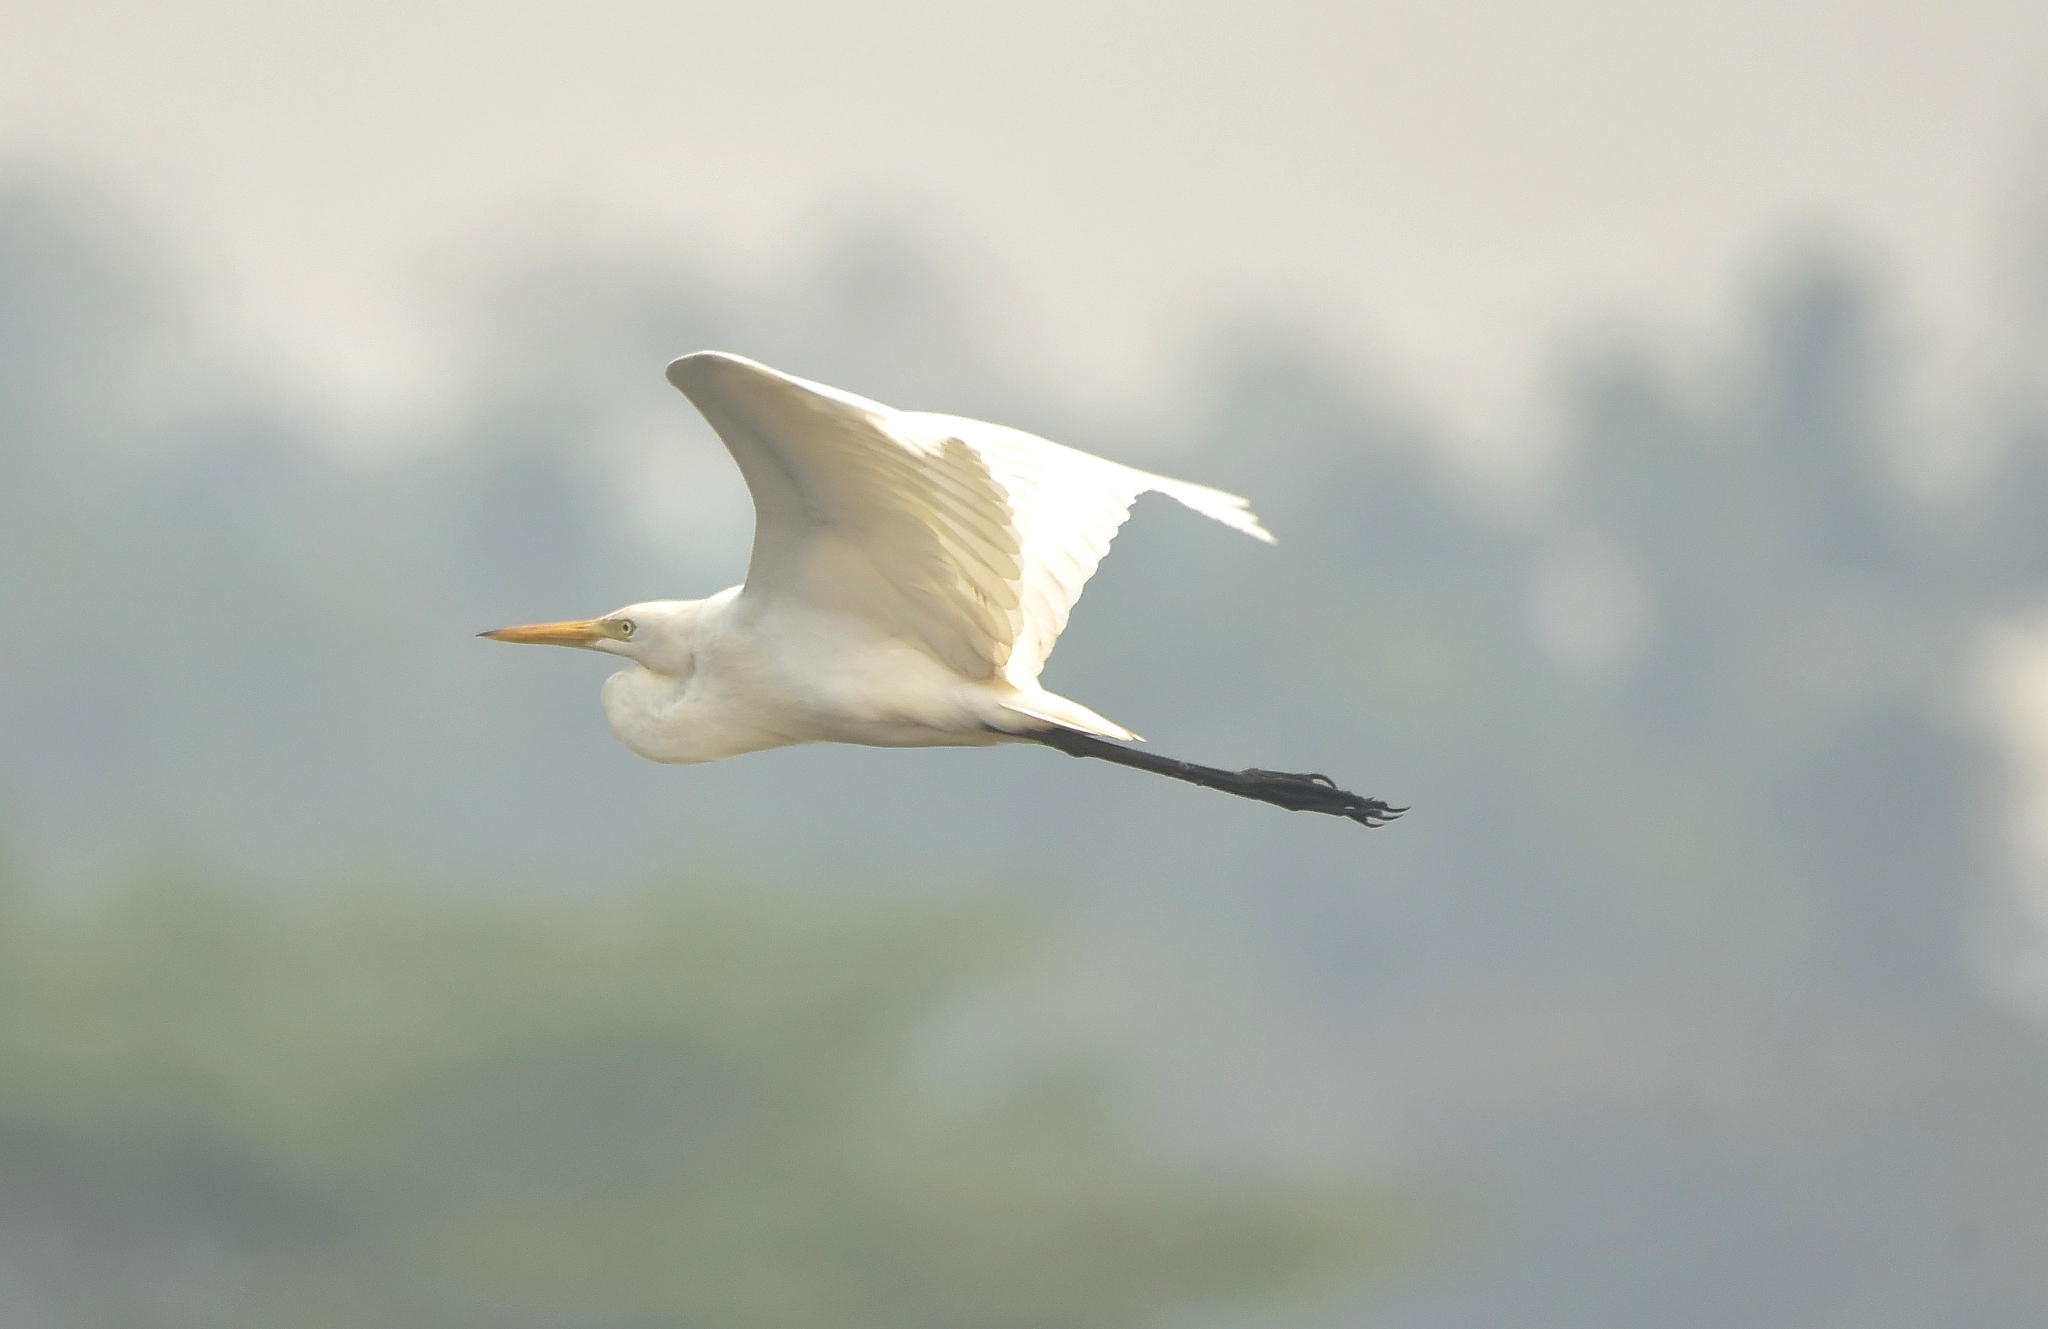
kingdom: Animalia
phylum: Chordata
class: Aves
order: Pelecaniformes
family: Ardeidae
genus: Egretta
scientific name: Egretta intermedia
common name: Intermediate egret
